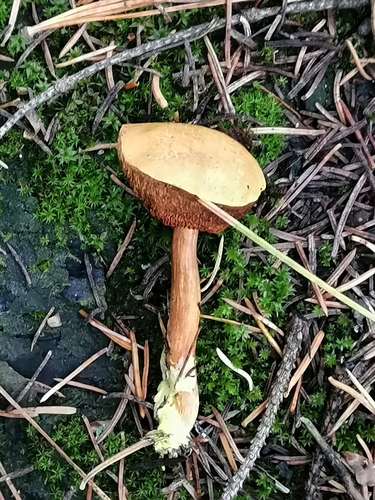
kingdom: Fungi
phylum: Basidiomycota
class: Agaricomycetes
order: Boletales
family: Boletaceae
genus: Chalciporus
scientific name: Chalciporus piperatus
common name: Peppery bolete
